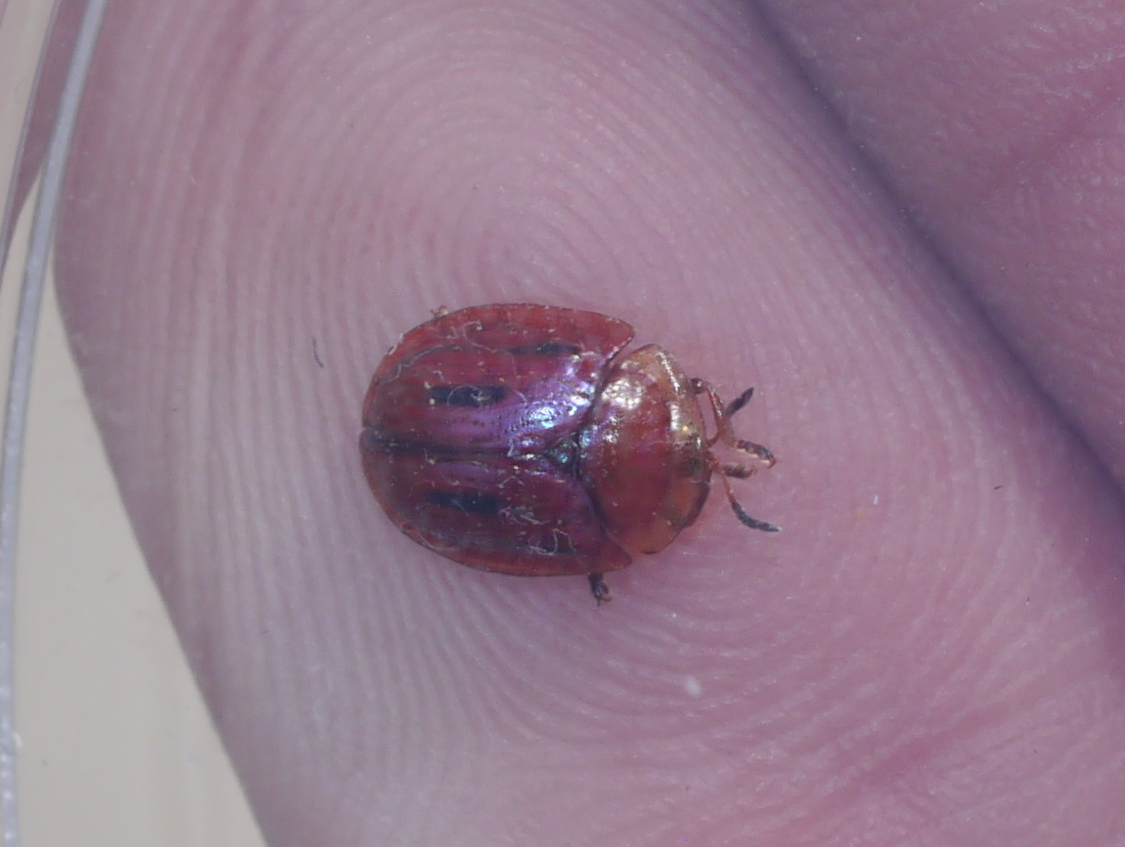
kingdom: Animalia
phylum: Arthropoda
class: Insecta
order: Coleoptera
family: Chrysomelidae
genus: Jonthonota
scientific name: Jonthonota mexicana
